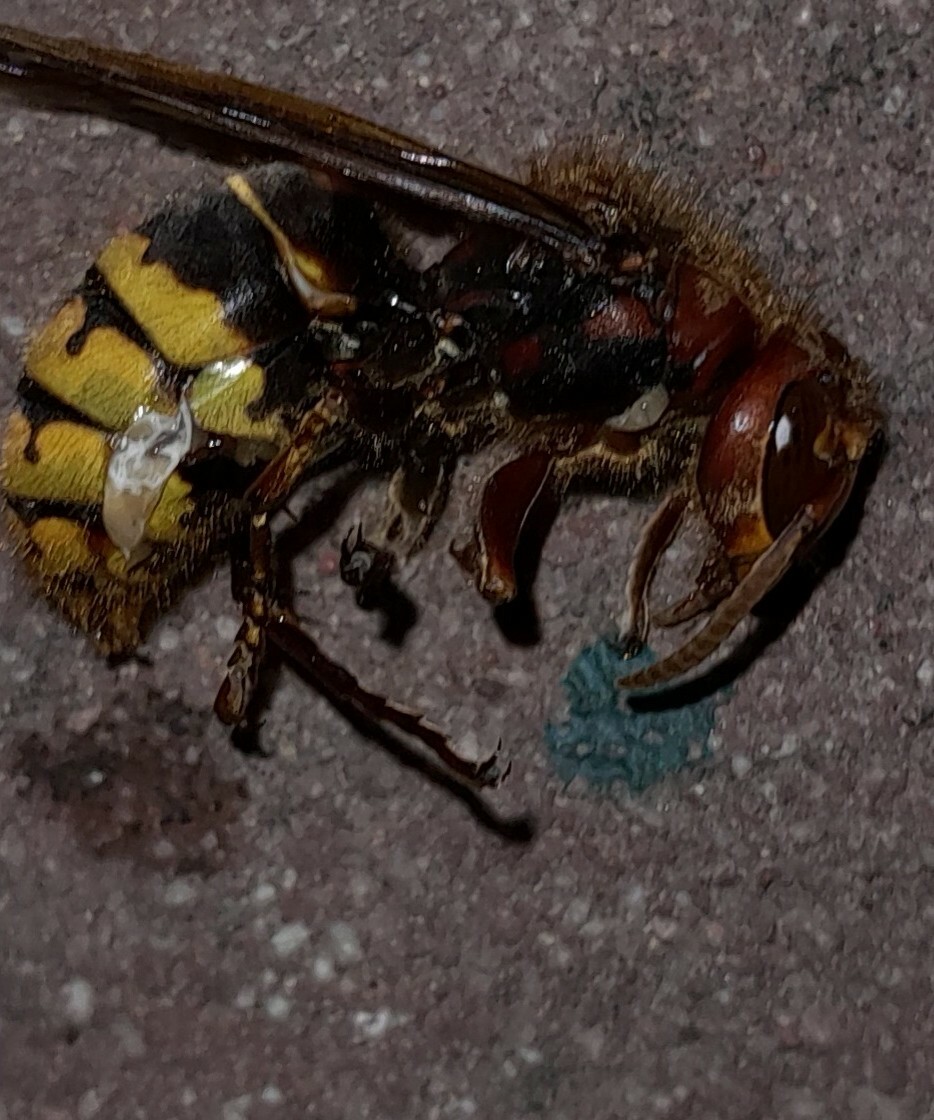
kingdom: Animalia
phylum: Arthropoda
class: Insecta
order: Hymenoptera
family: Vespidae
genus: Vespa
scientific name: Vespa crabro
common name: Hornet
